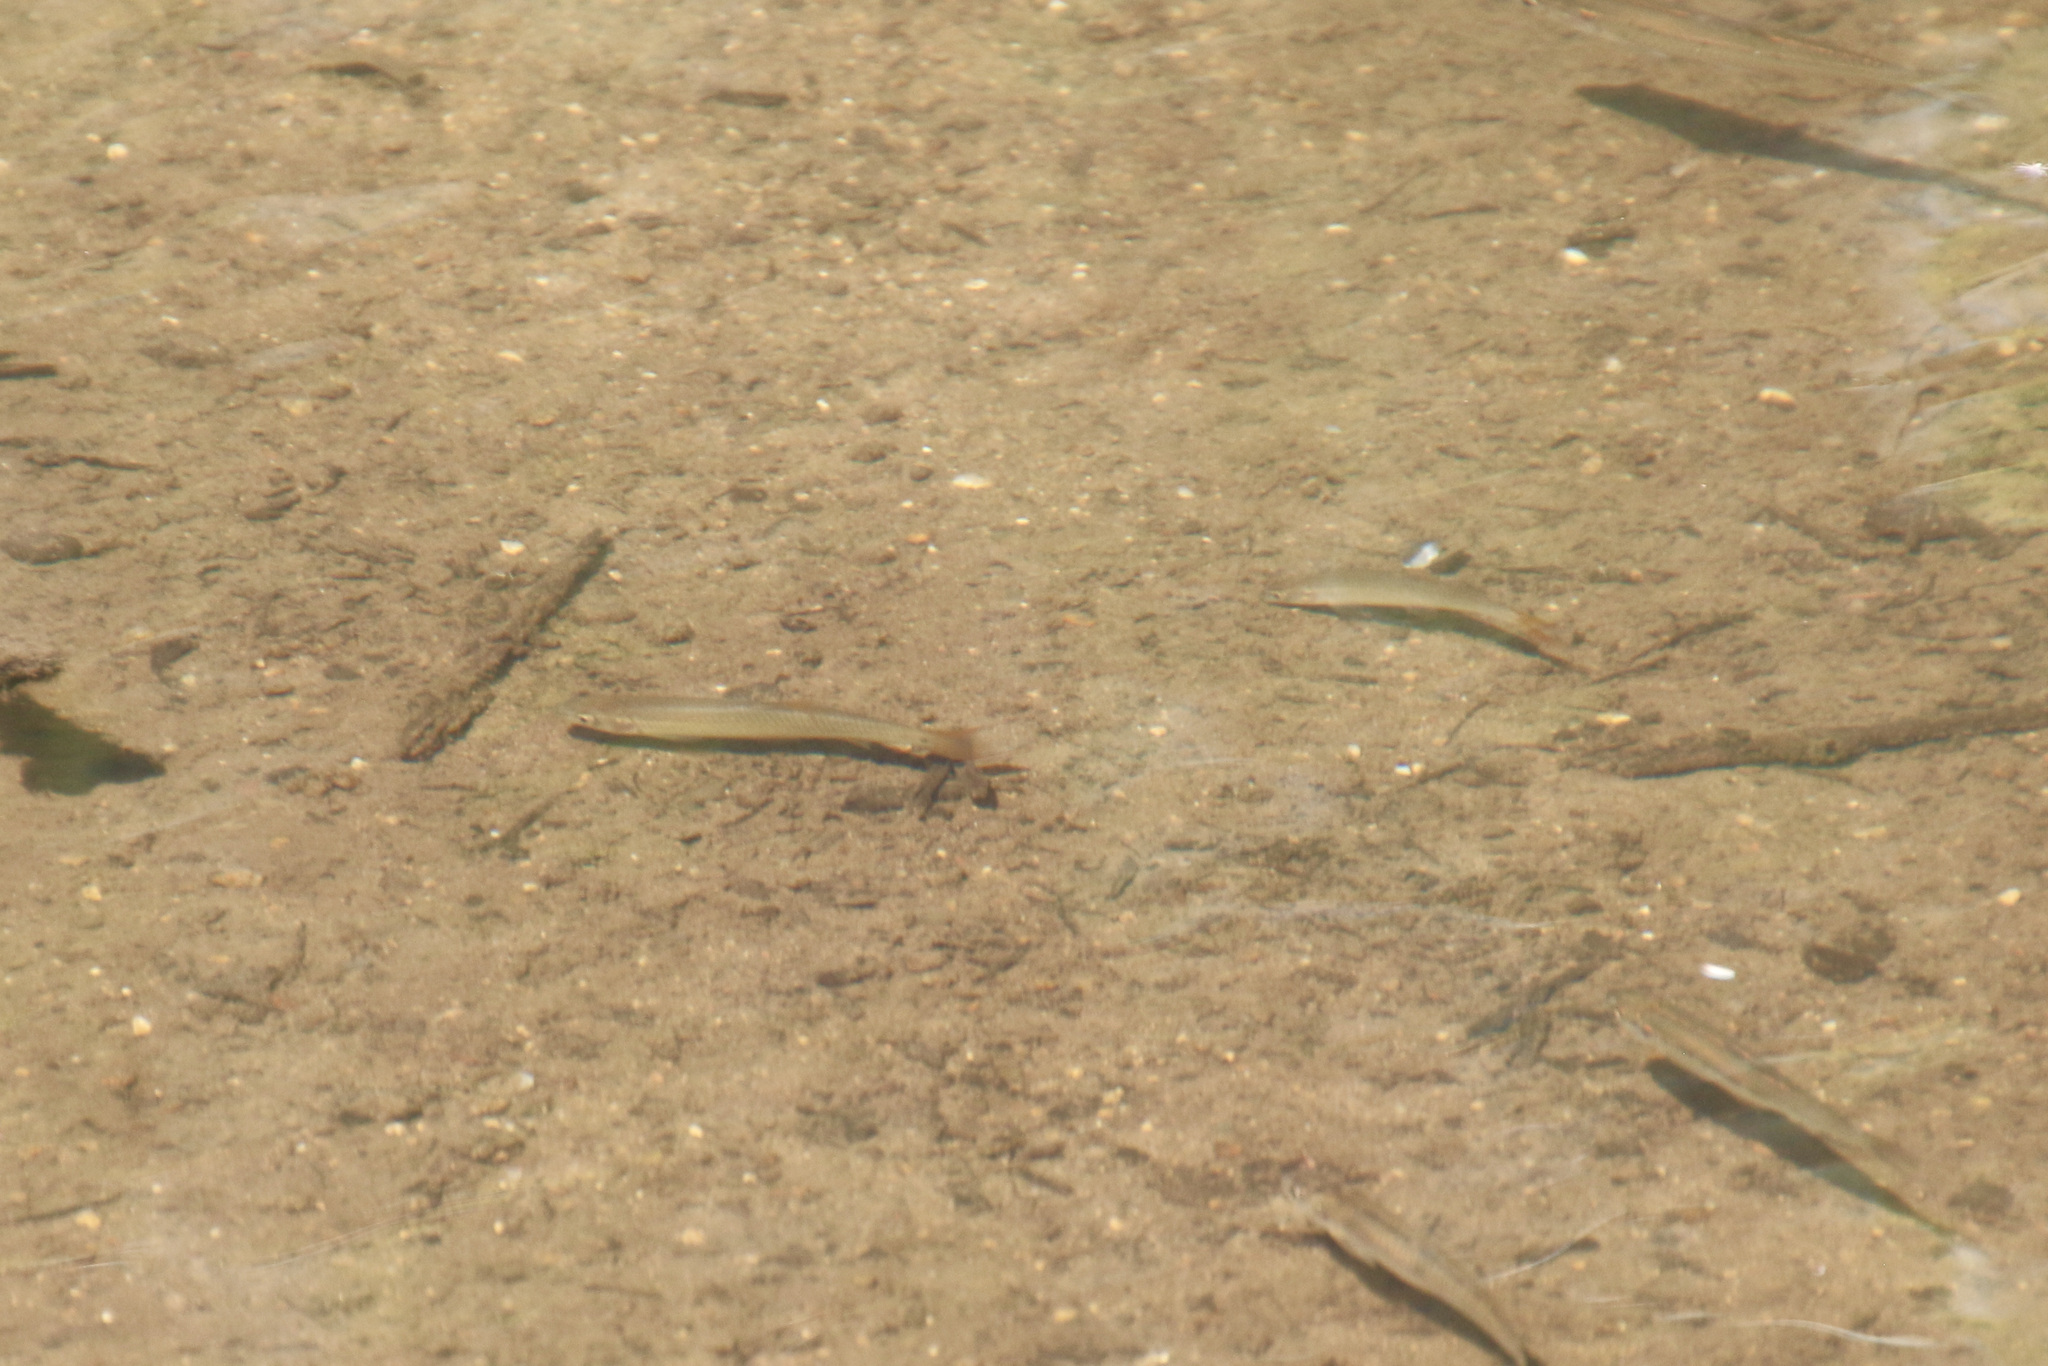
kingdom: Animalia
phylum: Chordata
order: Cypriniformes
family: Cyprinidae
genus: Nocomis
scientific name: Nocomis biguttatus
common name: Hornyhead chub
